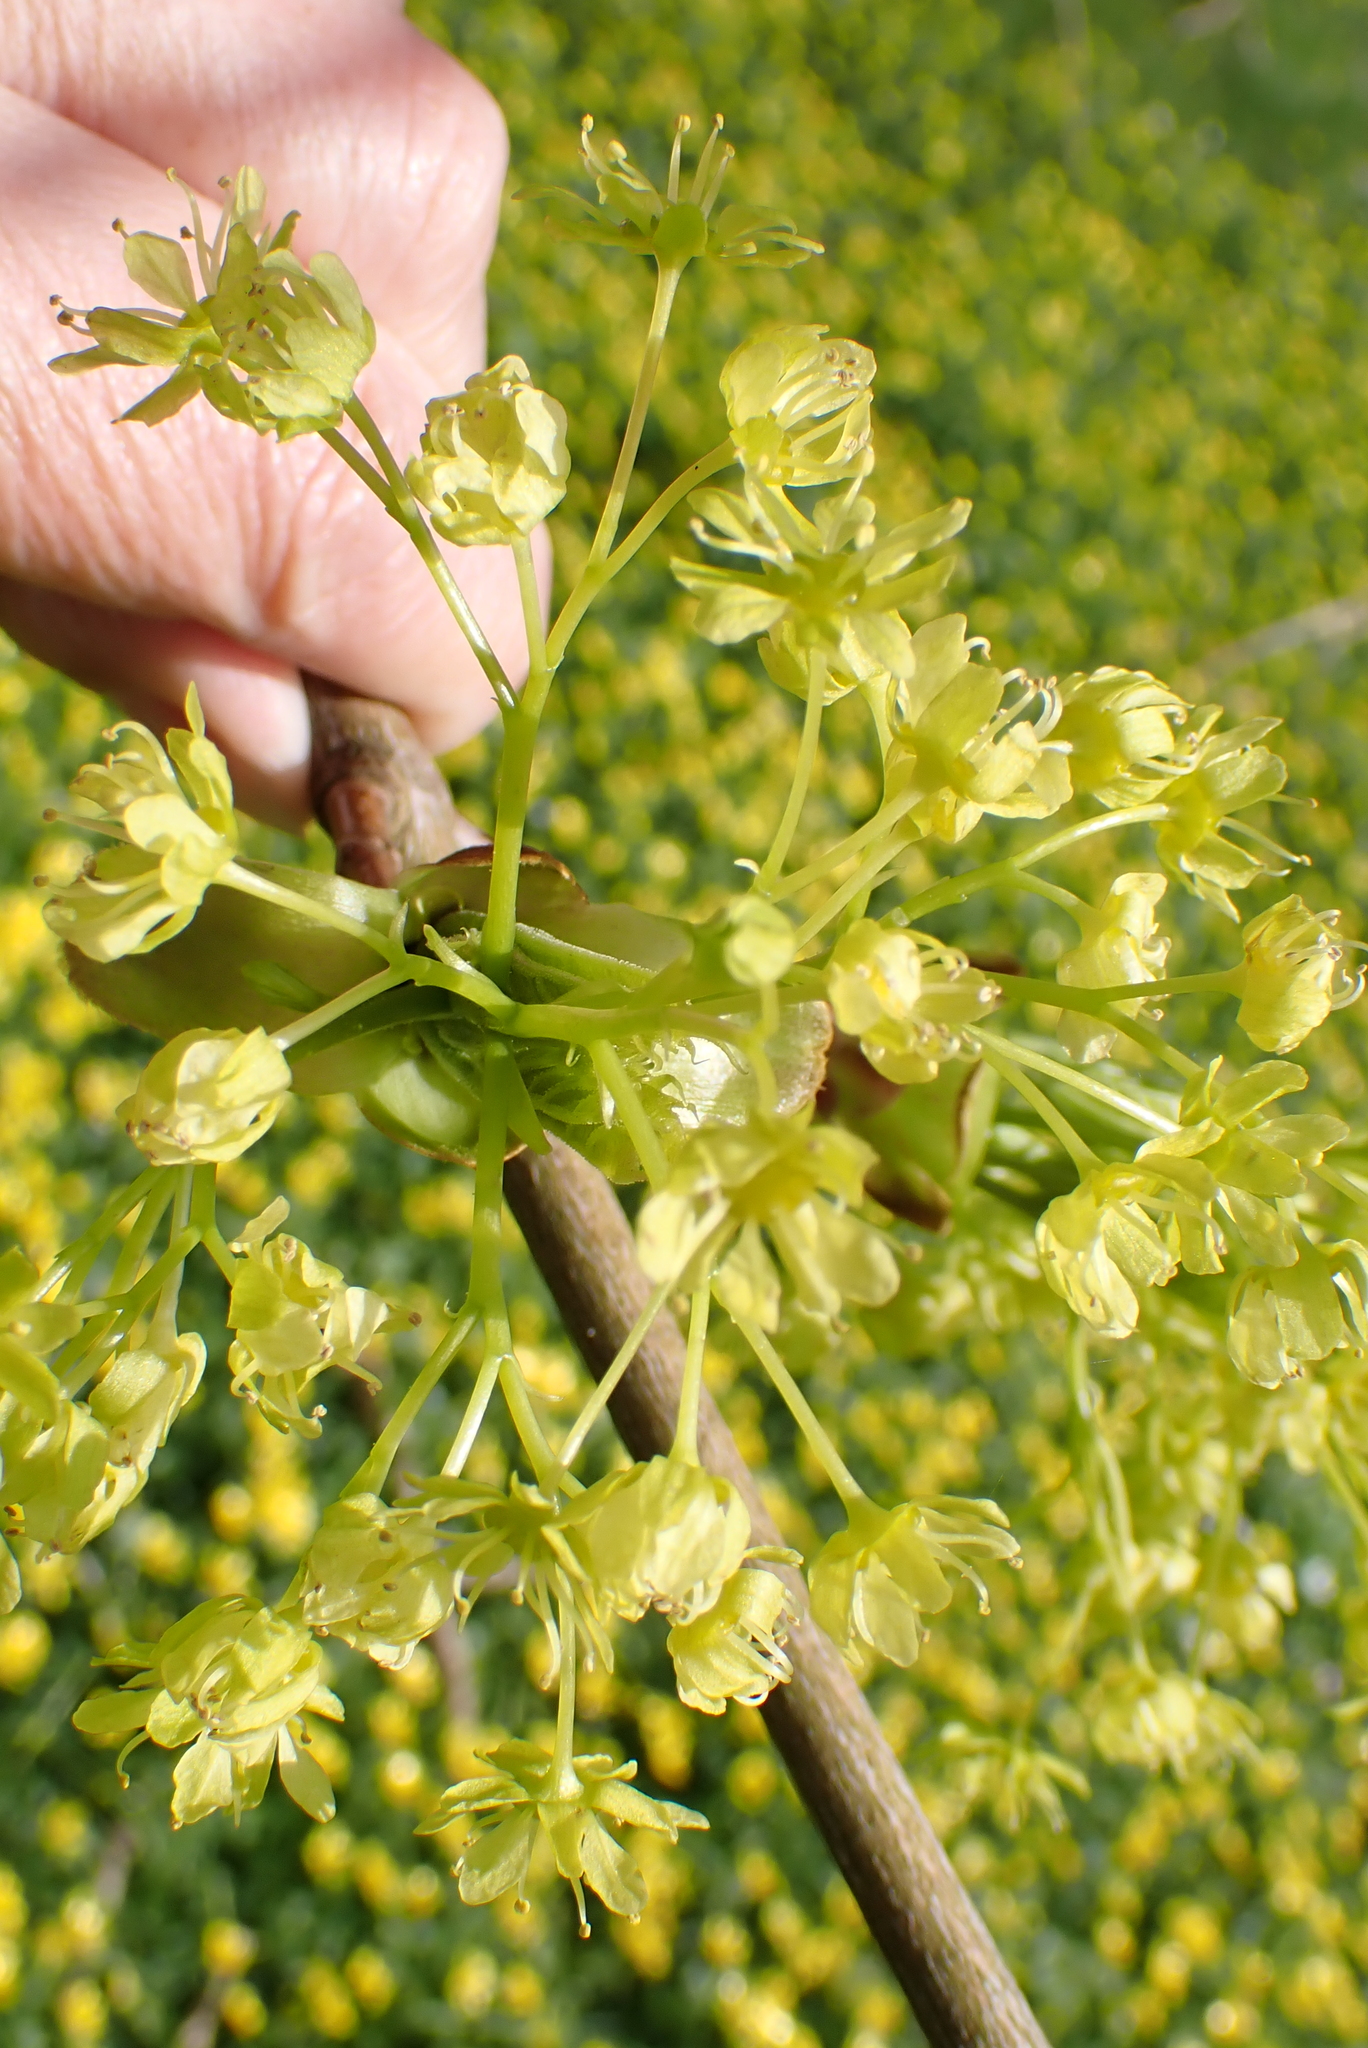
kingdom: Plantae
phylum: Tracheophyta
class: Magnoliopsida
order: Sapindales
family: Sapindaceae
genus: Acer
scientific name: Acer platanoides
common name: Norway maple
